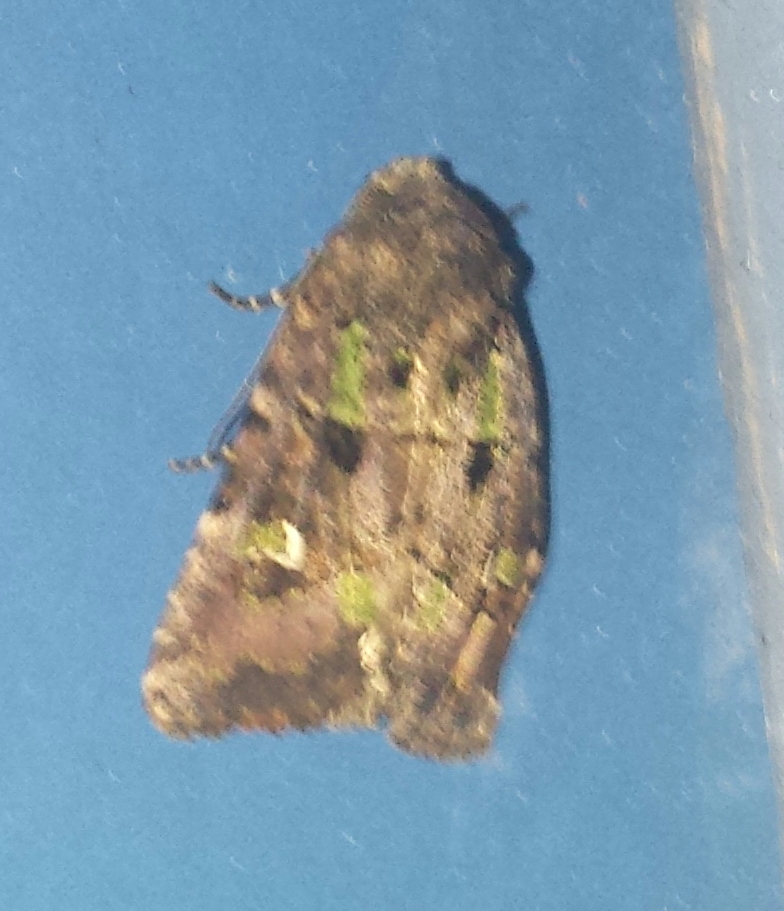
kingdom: Animalia
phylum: Arthropoda
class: Insecta
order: Lepidoptera
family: Noctuidae
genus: Lacinipolia
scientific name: Lacinipolia renigera
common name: Kidney-spotted minor
